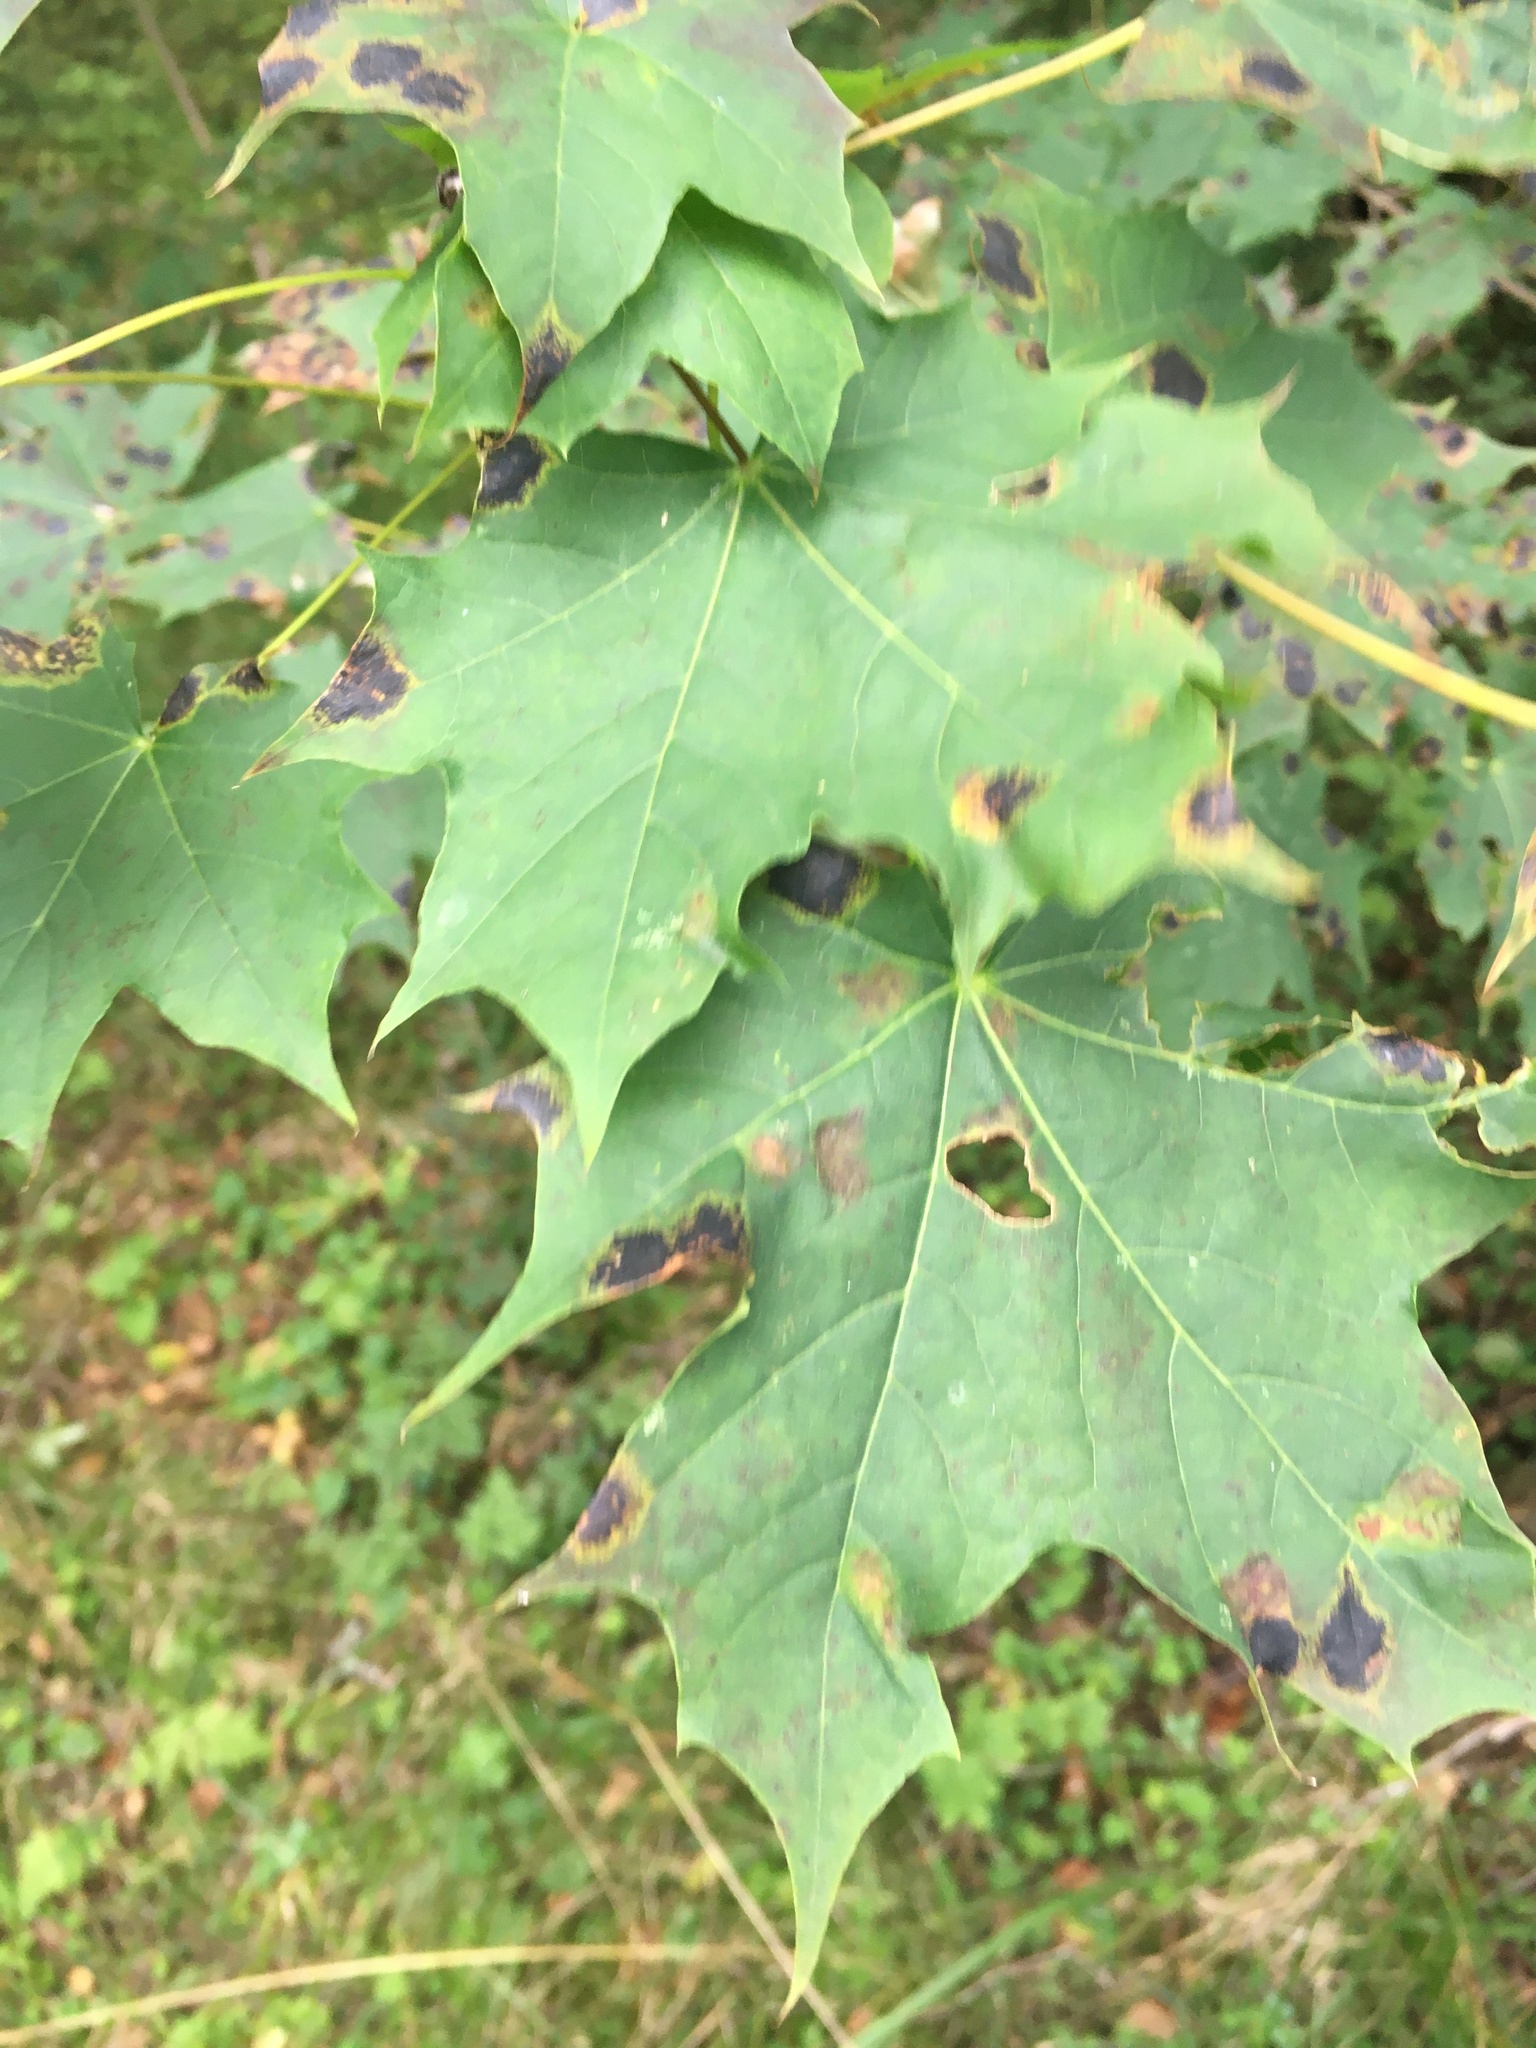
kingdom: Plantae
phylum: Tracheophyta
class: Magnoliopsida
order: Sapindales
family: Sapindaceae
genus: Acer
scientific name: Acer platanoides
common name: Norway maple
